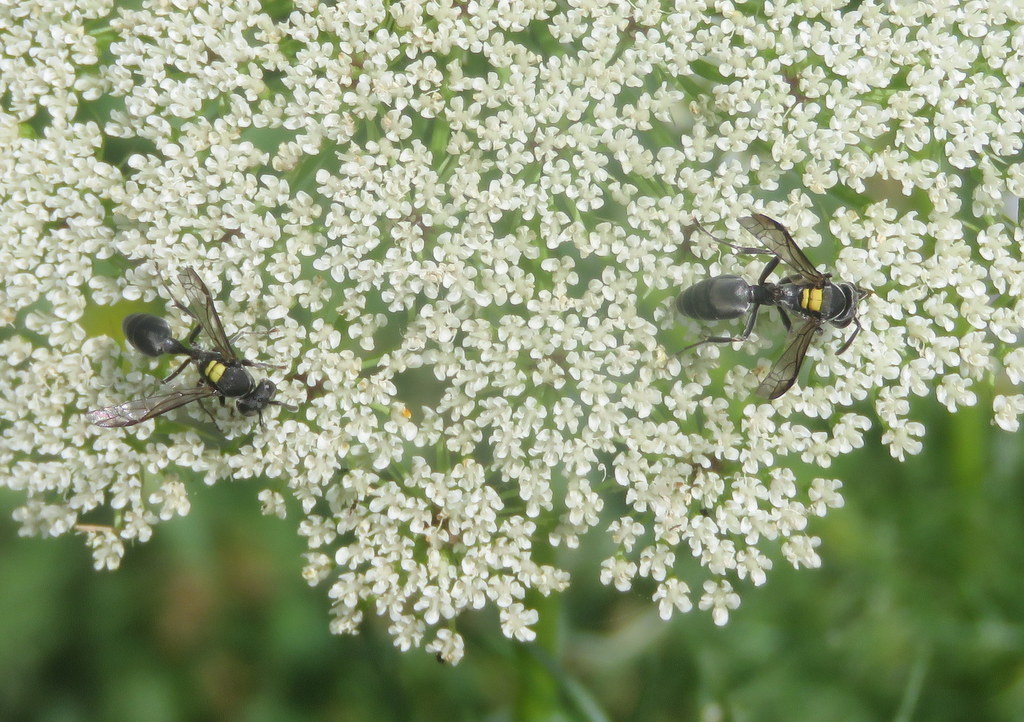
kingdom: Animalia
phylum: Arthropoda
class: Insecta
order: Hymenoptera
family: Eumenidae
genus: Polybia
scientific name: Polybia scutellaris
